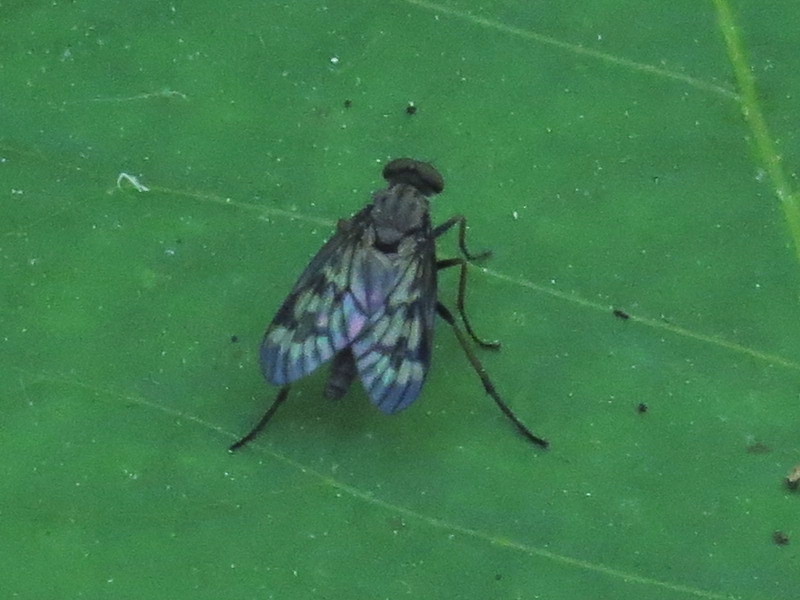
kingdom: Animalia
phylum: Arthropoda
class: Insecta
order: Diptera
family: Rhagionidae
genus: Rhagio
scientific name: Rhagio punctipennis
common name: Lesser variegated snipe fly
